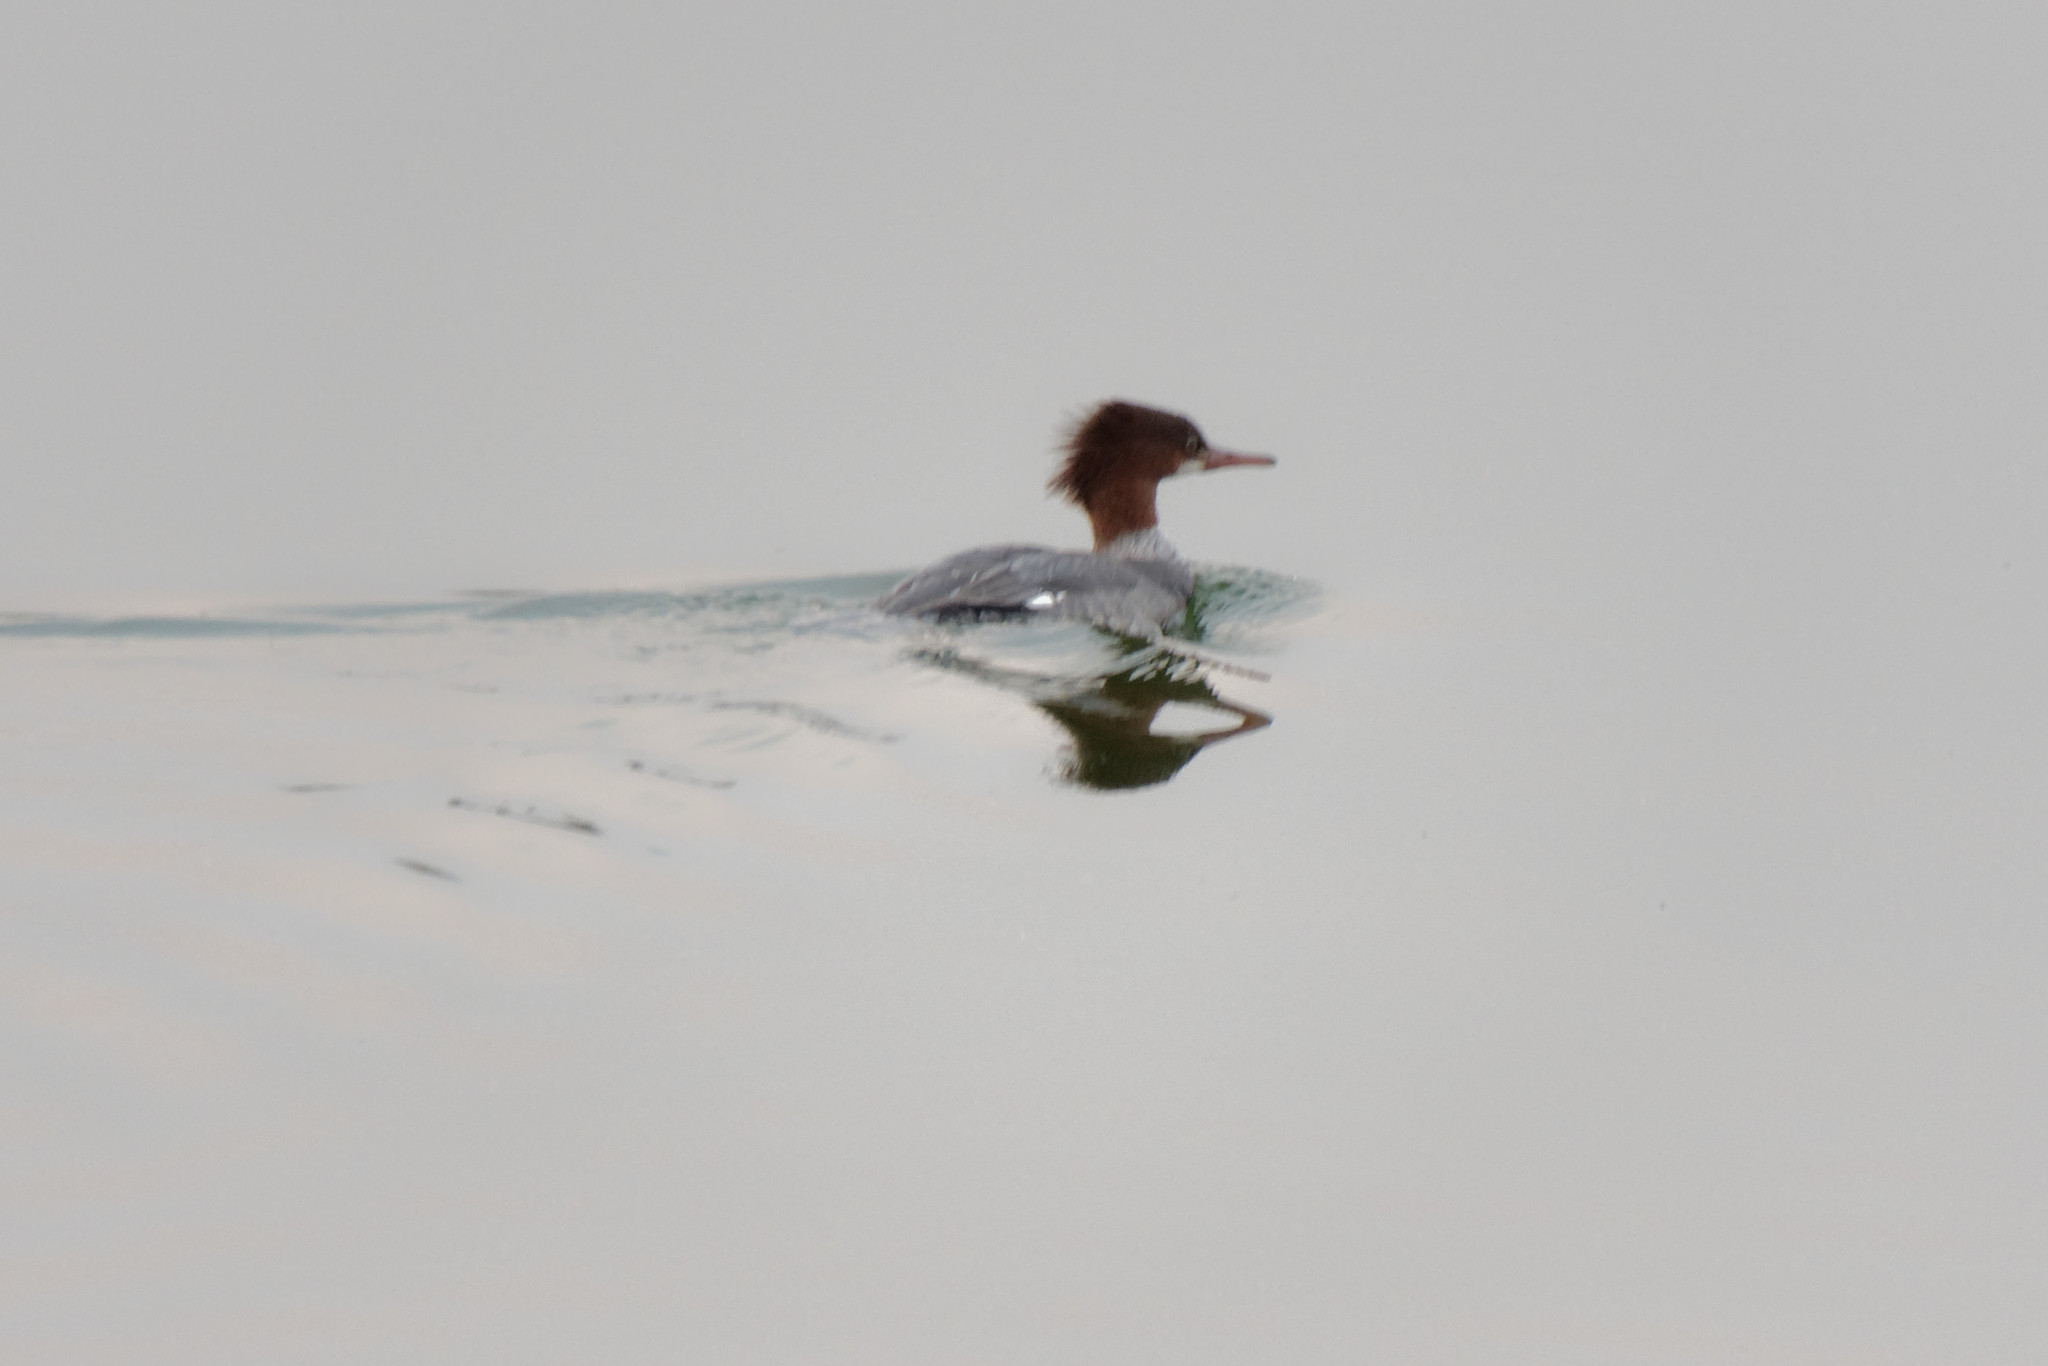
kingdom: Animalia
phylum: Chordata
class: Aves
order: Anseriformes
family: Anatidae
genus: Mergus
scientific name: Mergus merganser
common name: Common merganser
